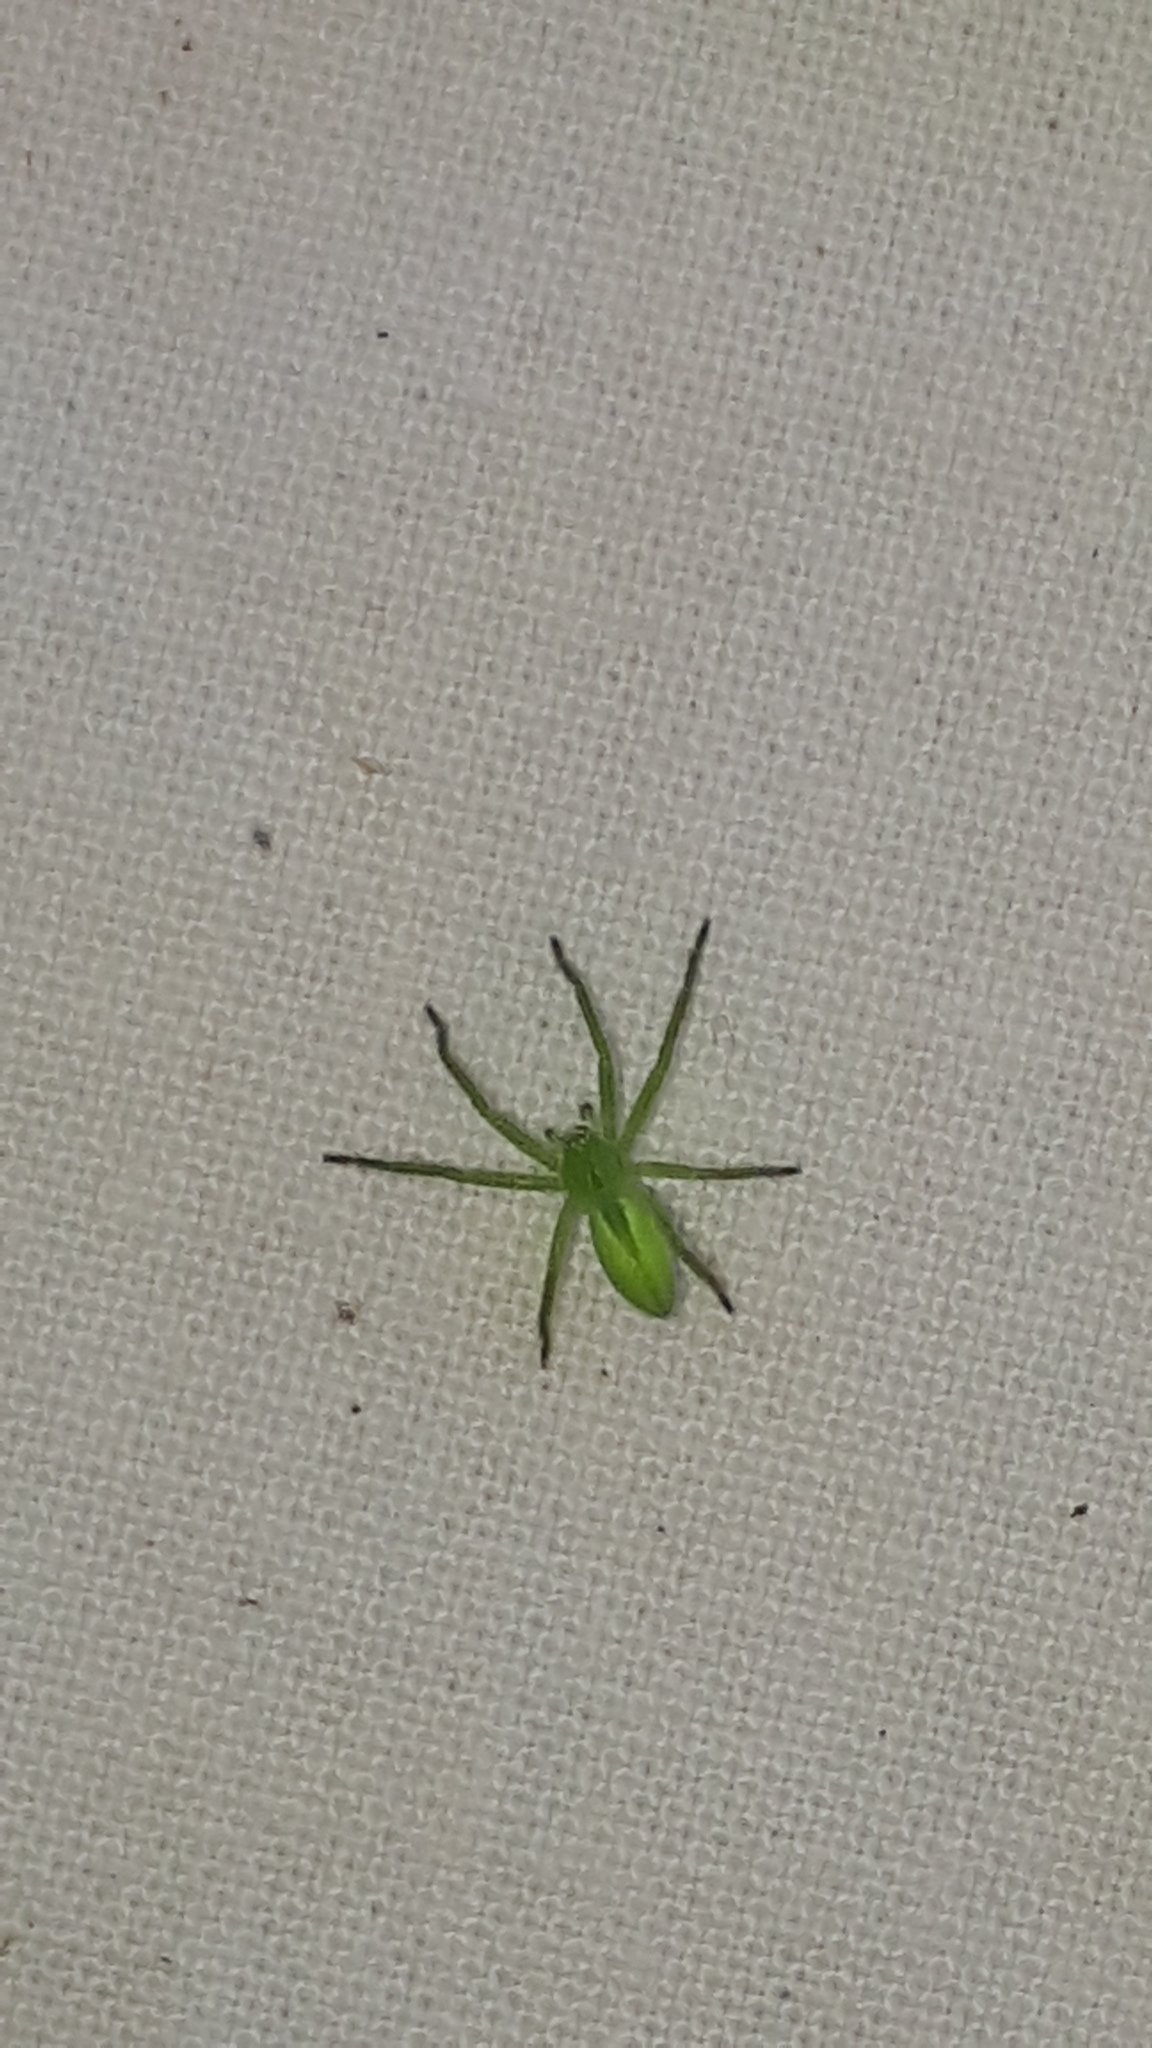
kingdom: Animalia
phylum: Arthropoda
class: Arachnida
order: Araneae
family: Sparassidae
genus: Micrommata
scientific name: Micrommata virescens
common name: Green spider
